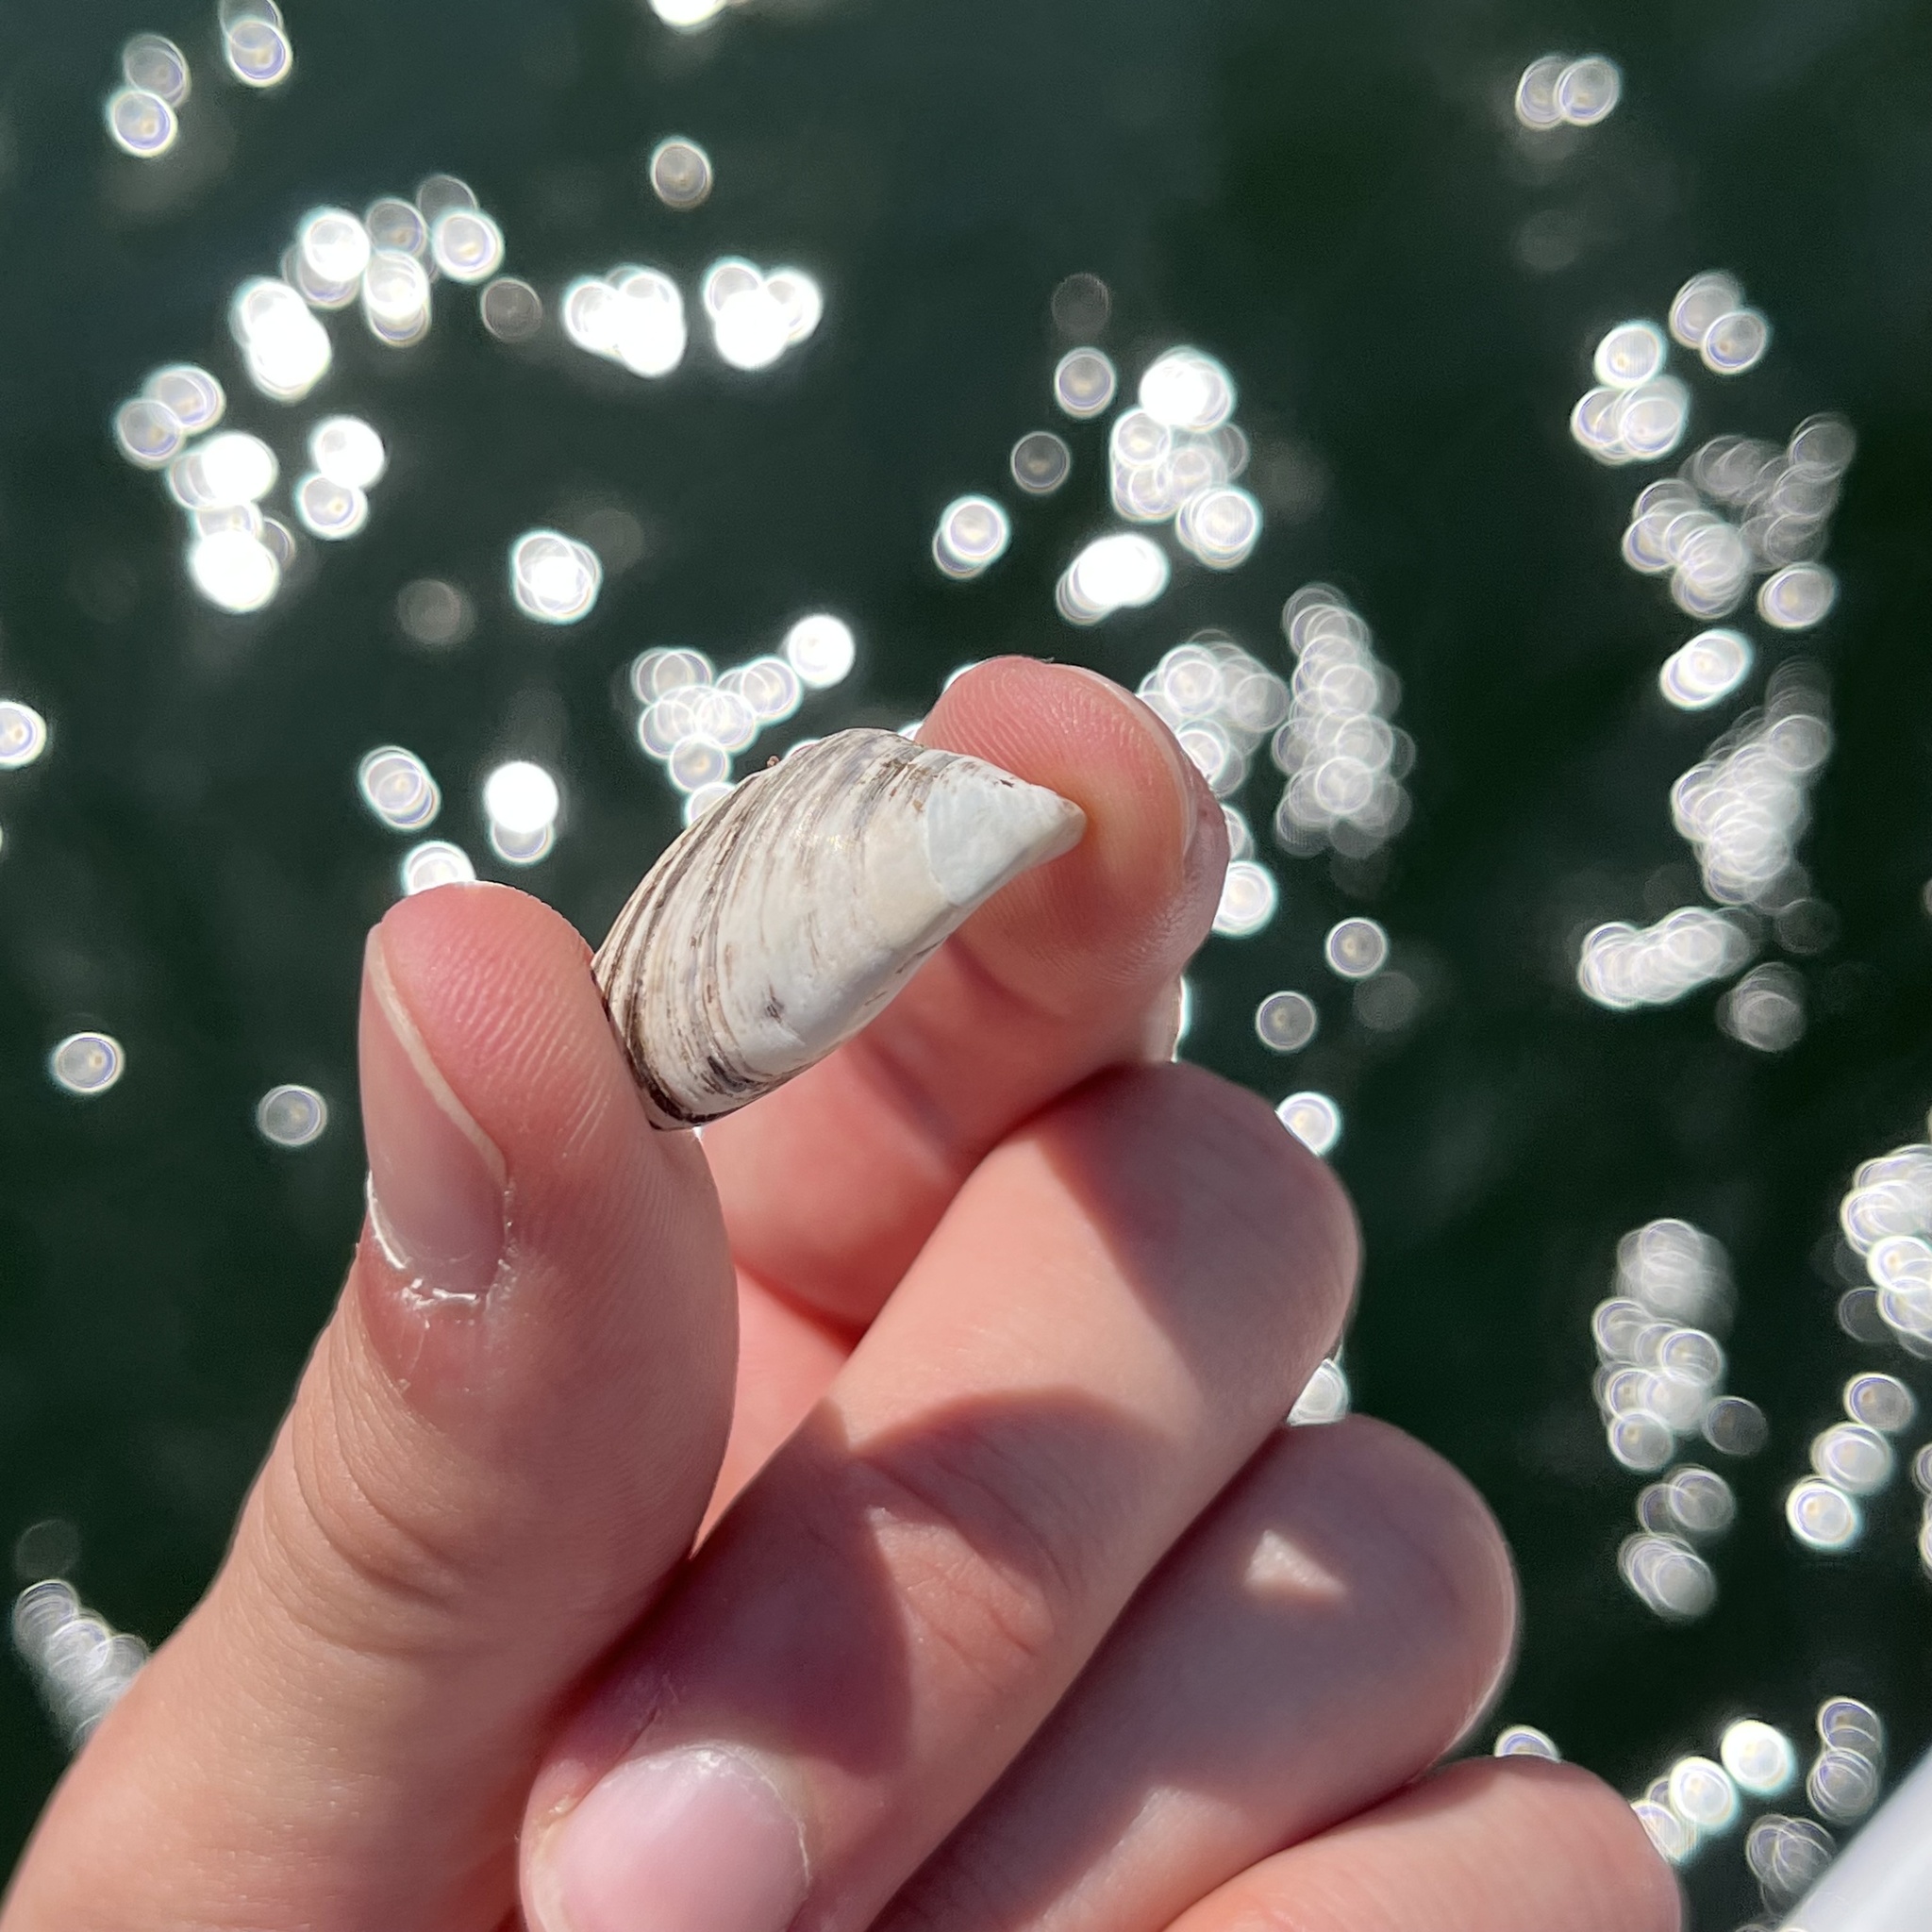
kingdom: Animalia
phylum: Mollusca
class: Bivalvia
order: Myida
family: Dreissenidae
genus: Dreissena
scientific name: Dreissena polymorpha
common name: Zebra mussel
